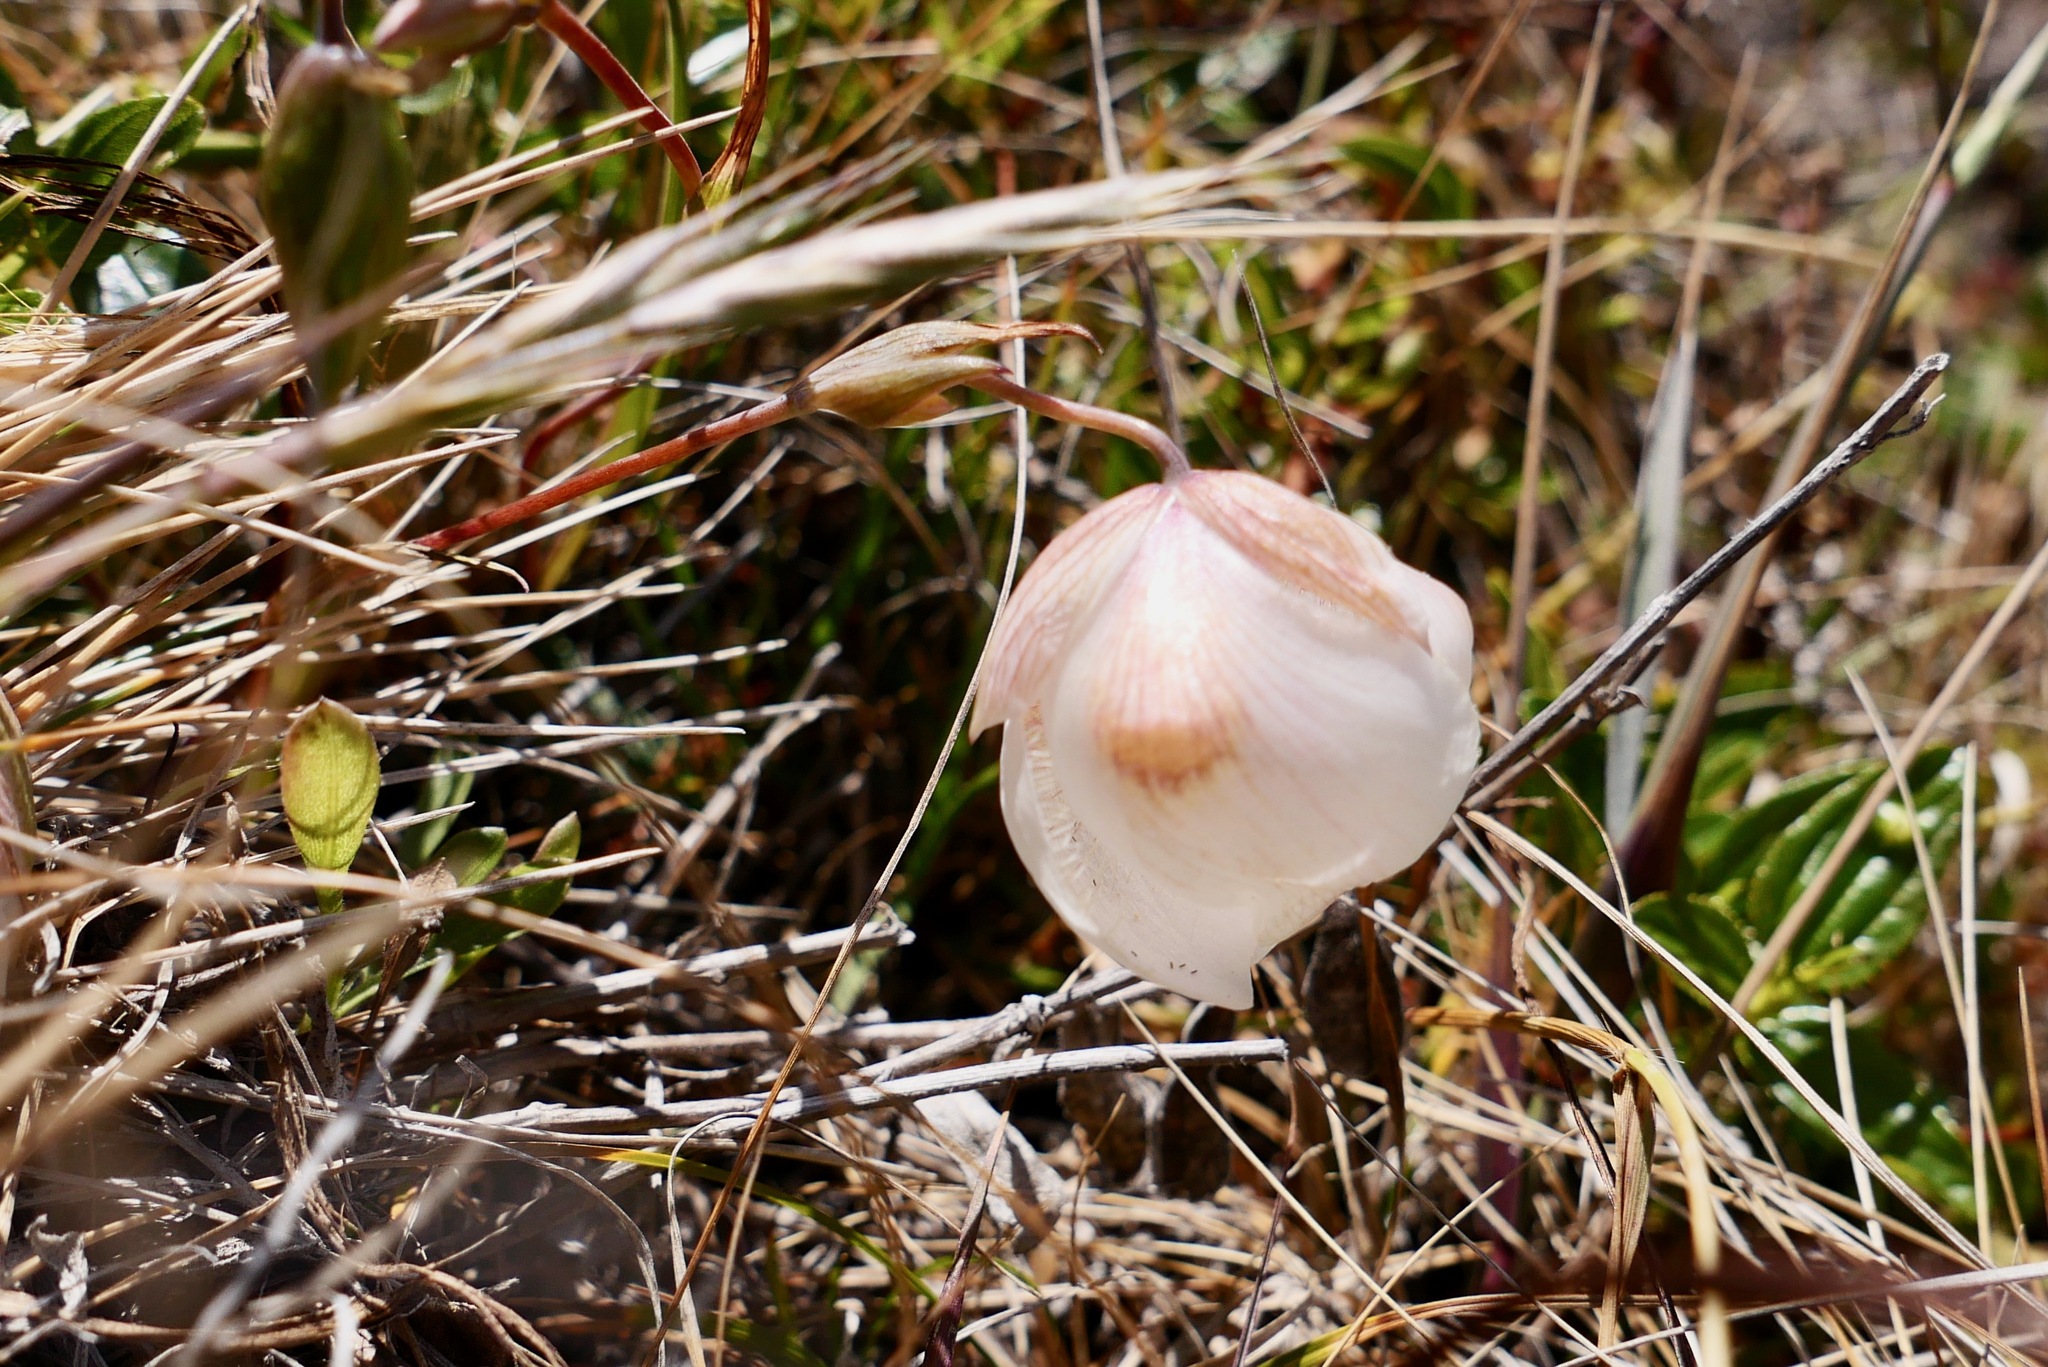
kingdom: Plantae
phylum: Tracheophyta
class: Liliopsida
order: Liliales
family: Liliaceae
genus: Calochortus
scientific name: Calochortus albus
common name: Fairy-lantern
